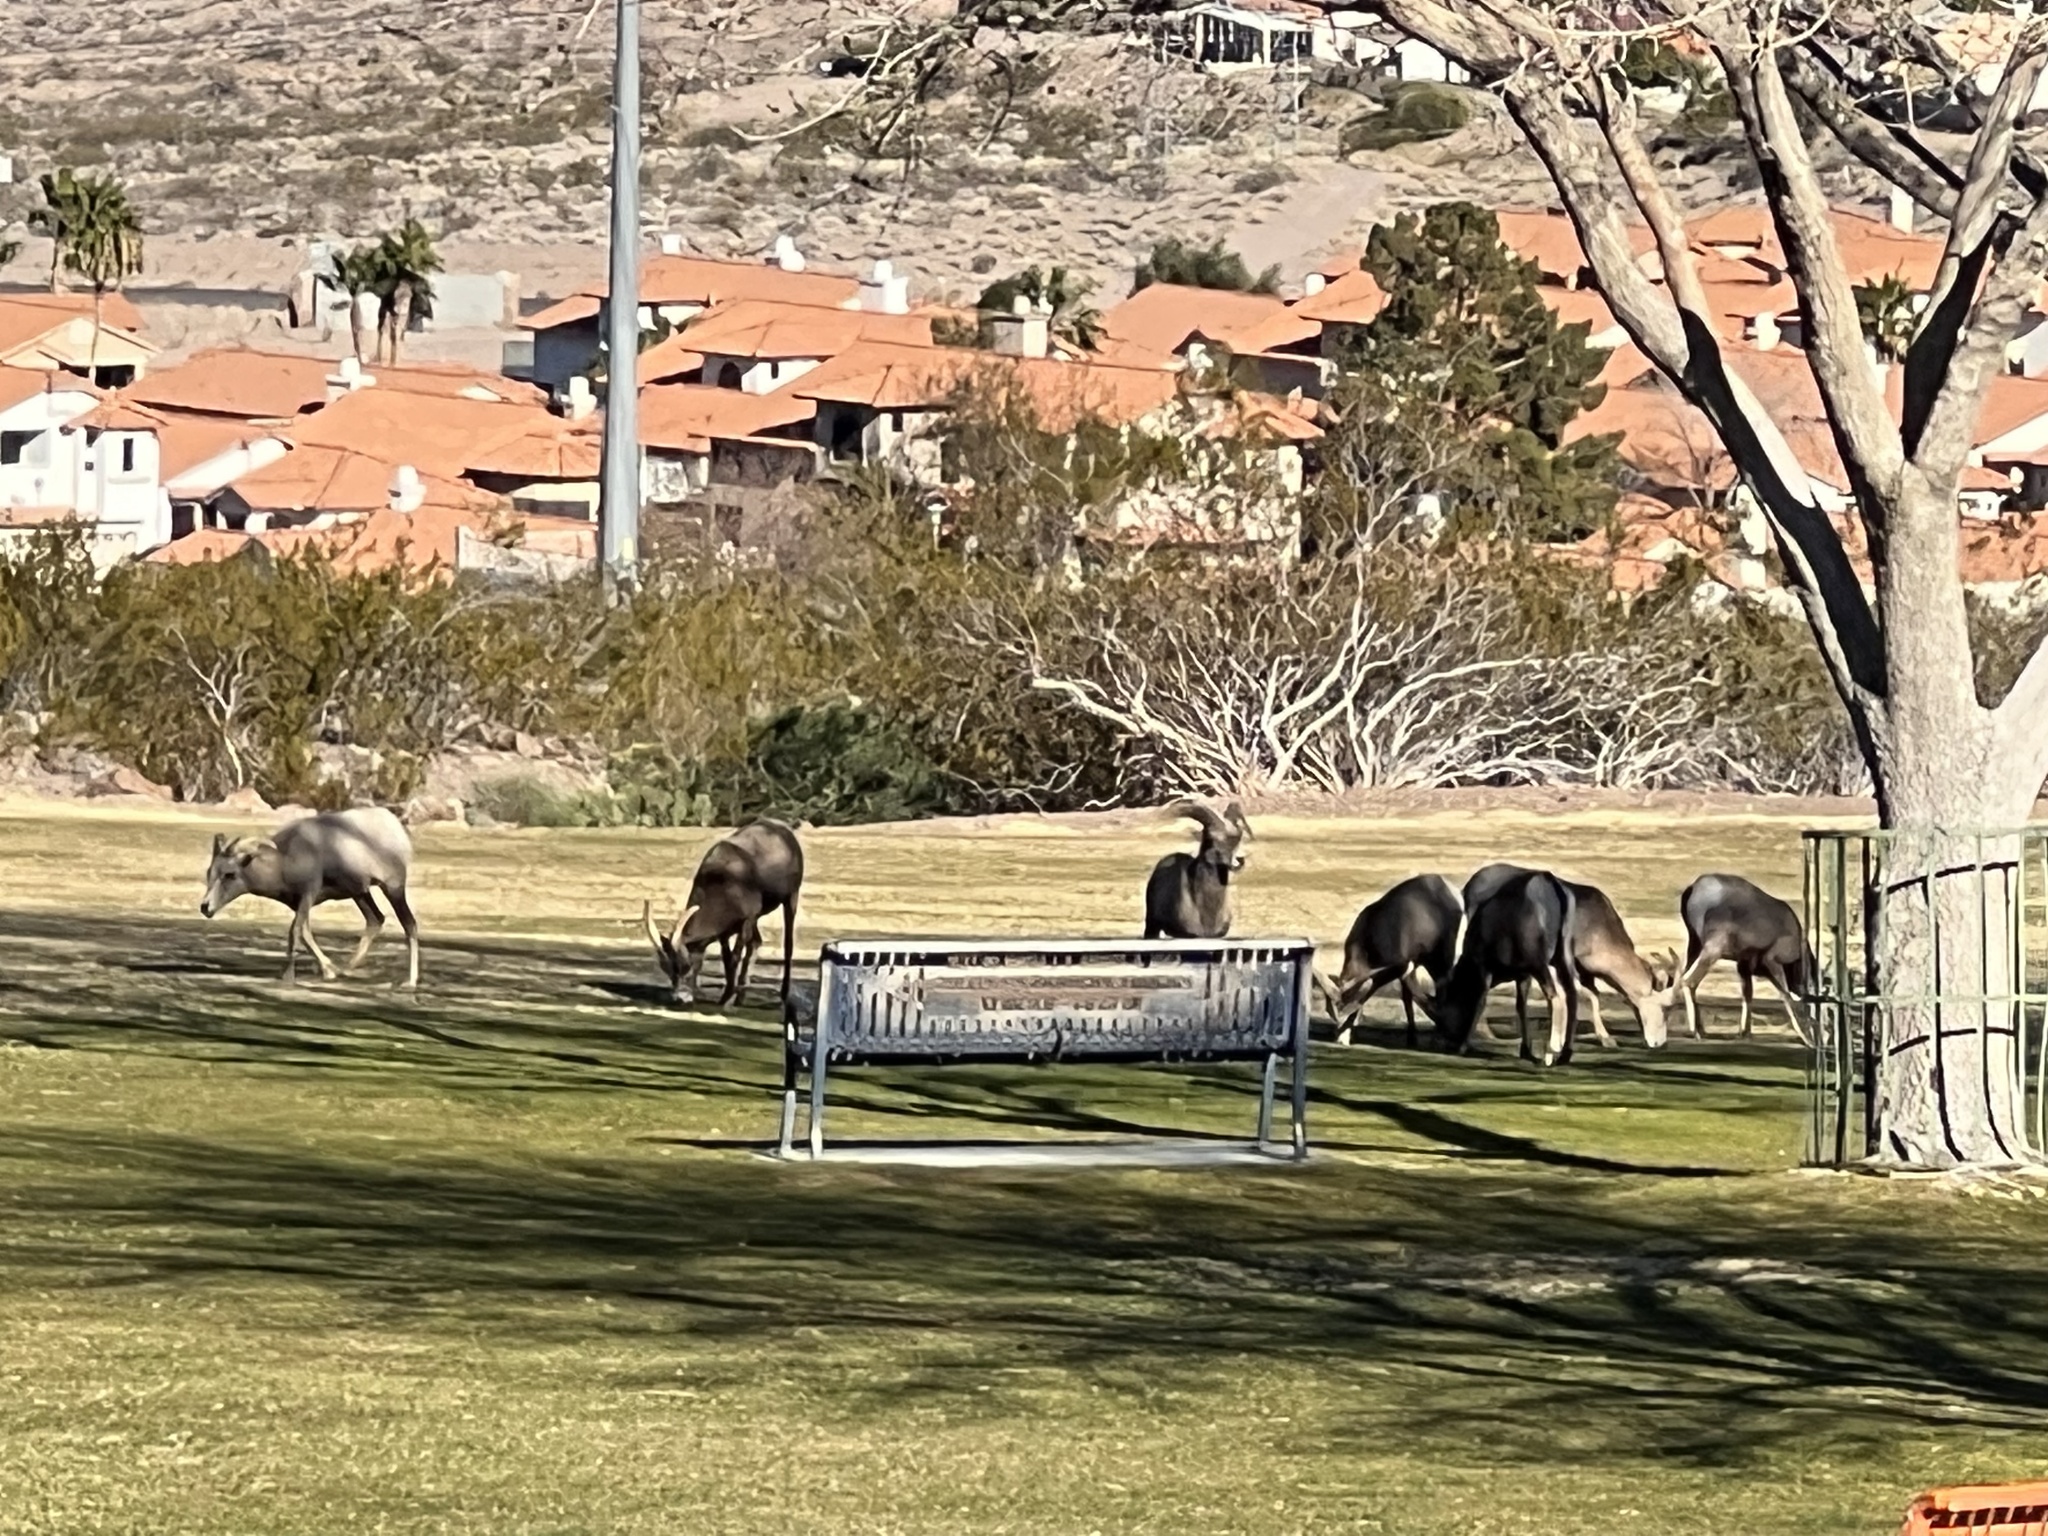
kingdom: Animalia
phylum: Chordata
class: Mammalia
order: Artiodactyla
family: Bovidae
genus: Ovis
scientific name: Ovis canadensis
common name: Bighorn sheep
